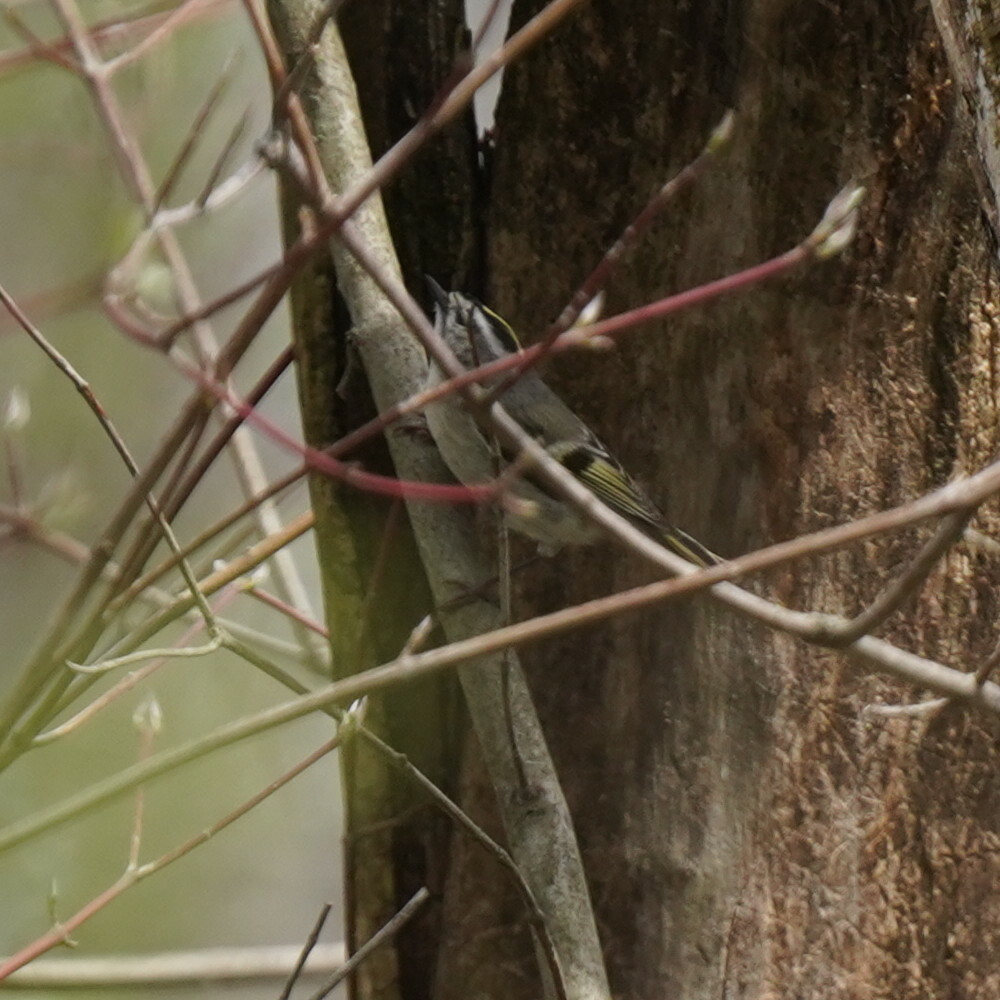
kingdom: Animalia
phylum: Chordata
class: Aves
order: Passeriformes
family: Regulidae
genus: Regulus
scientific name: Regulus satrapa
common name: Golden-crowned kinglet
